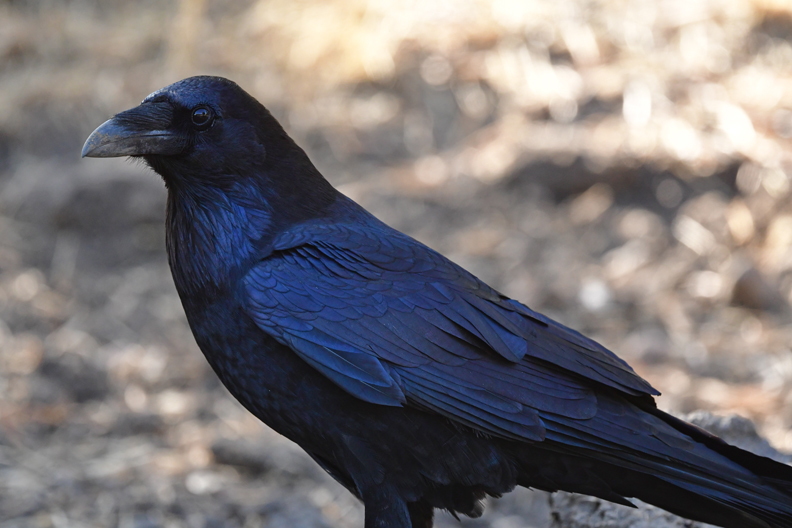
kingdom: Animalia
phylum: Chordata
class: Aves
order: Passeriformes
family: Corvidae
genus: Corvus
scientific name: Corvus corax
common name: Common raven
